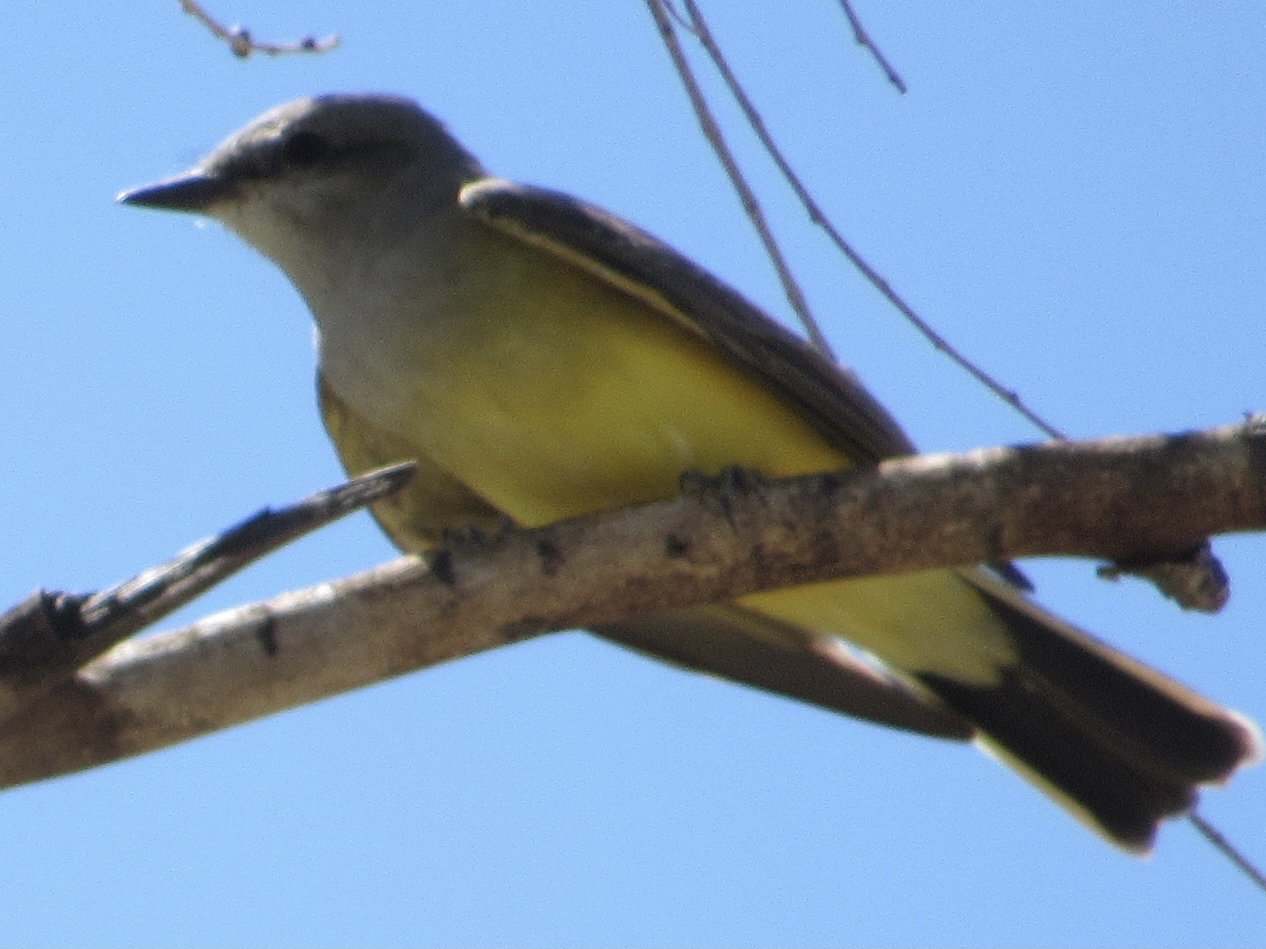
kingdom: Animalia
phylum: Chordata
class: Aves
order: Passeriformes
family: Tyrannidae
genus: Tyrannus
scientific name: Tyrannus verticalis
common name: Western kingbird
